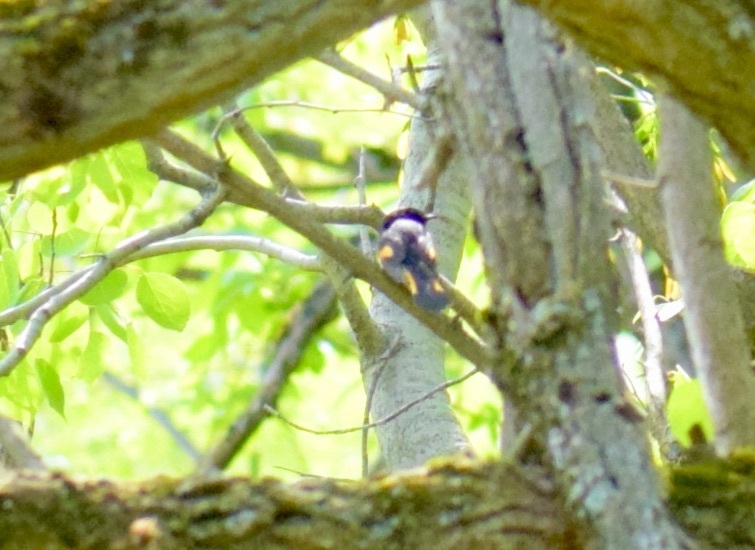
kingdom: Animalia
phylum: Chordata
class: Aves
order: Passeriformes
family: Parulidae
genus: Setophaga
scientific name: Setophaga ruticilla
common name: American redstart
